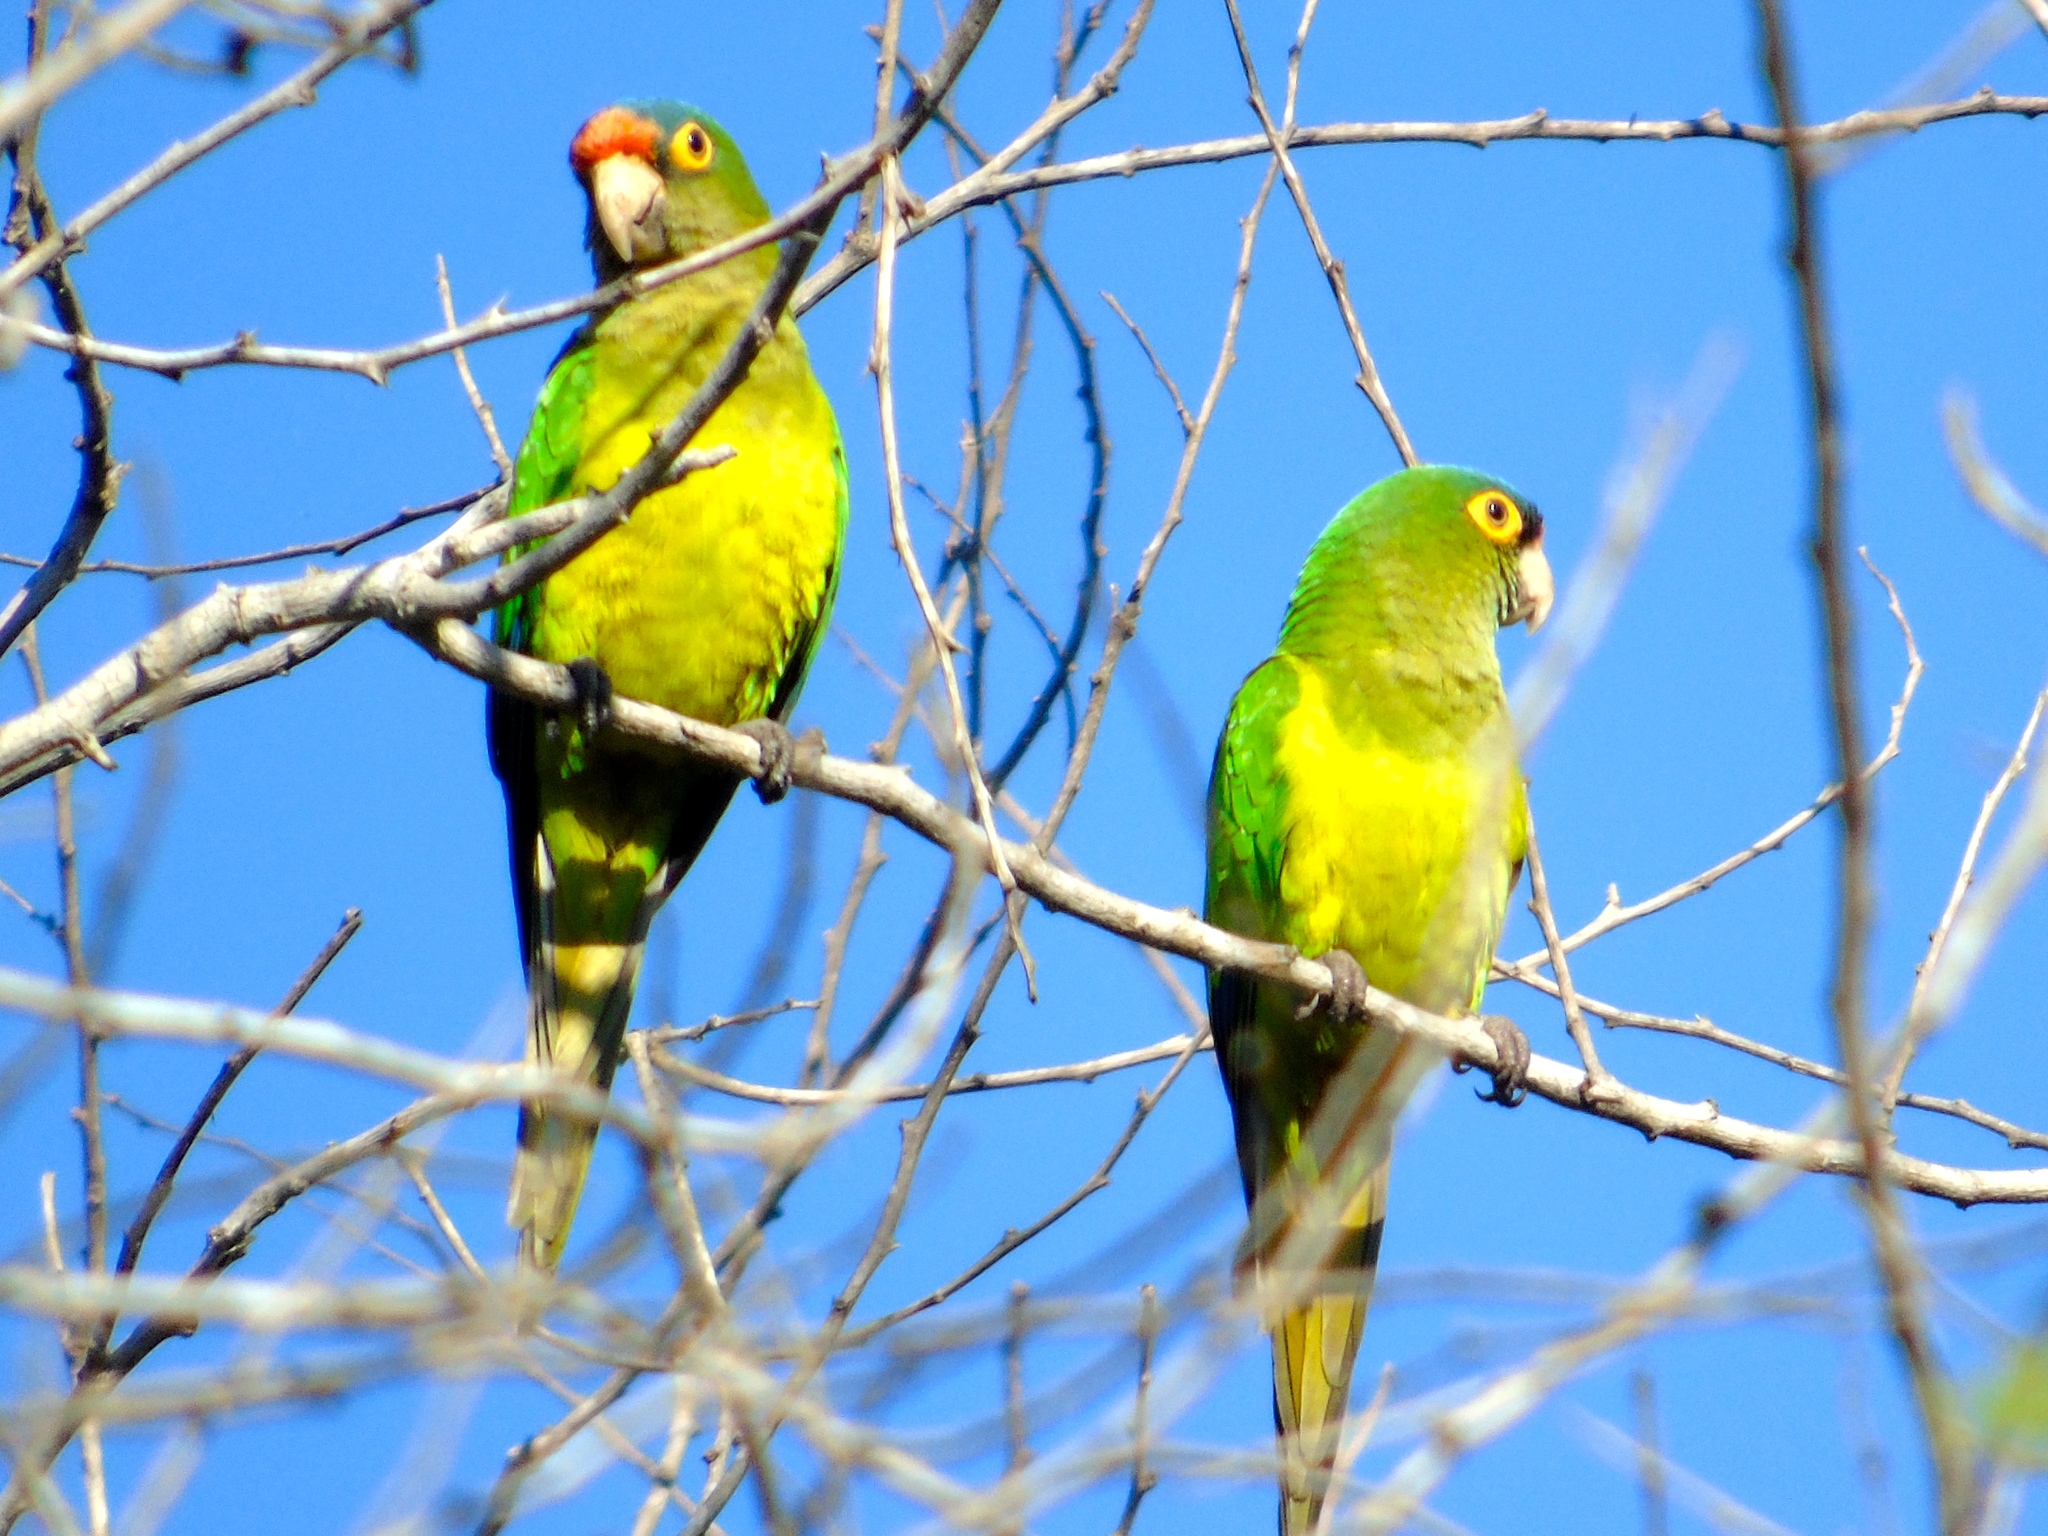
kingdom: Animalia
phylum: Chordata
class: Aves
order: Psittaciformes
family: Psittacidae
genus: Aratinga
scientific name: Aratinga canicularis
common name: Orange-fronted parakeet
